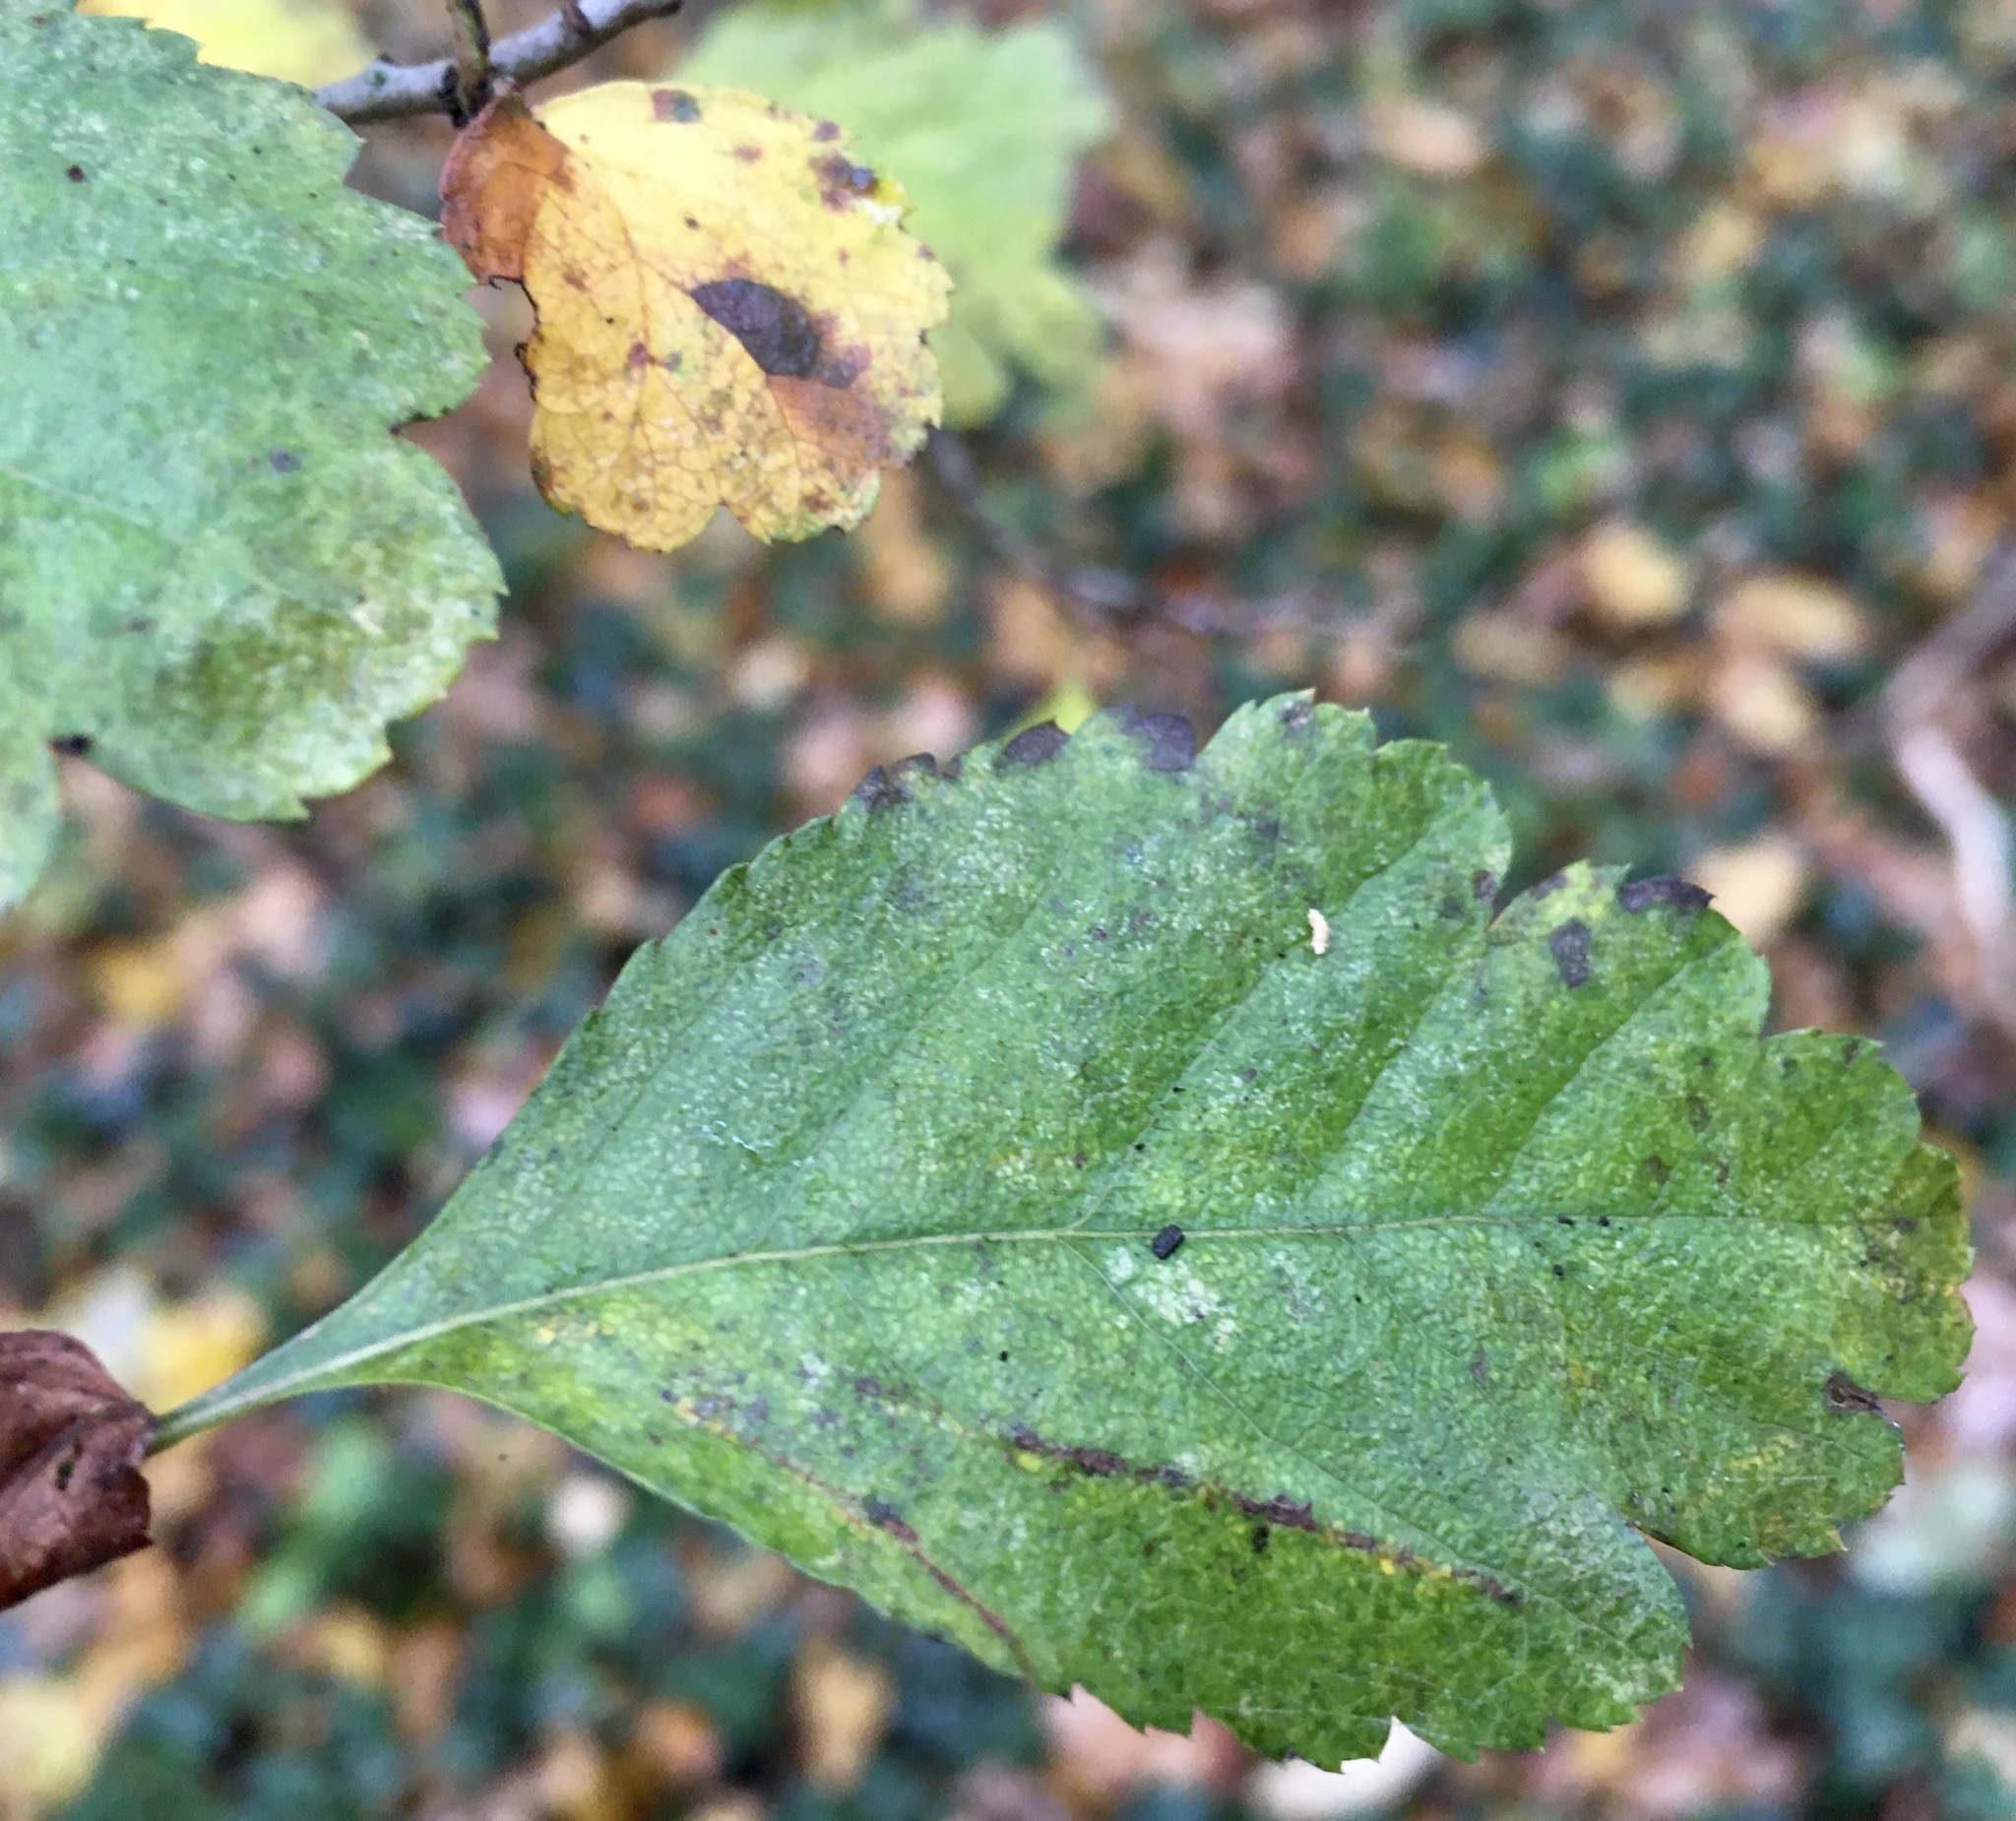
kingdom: Plantae
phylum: Tracheophyta
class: Magnoliopsida
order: Rosales
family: Rosaceae
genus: Crataegus
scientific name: Crataegus laevigata
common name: Midland hawthorn
